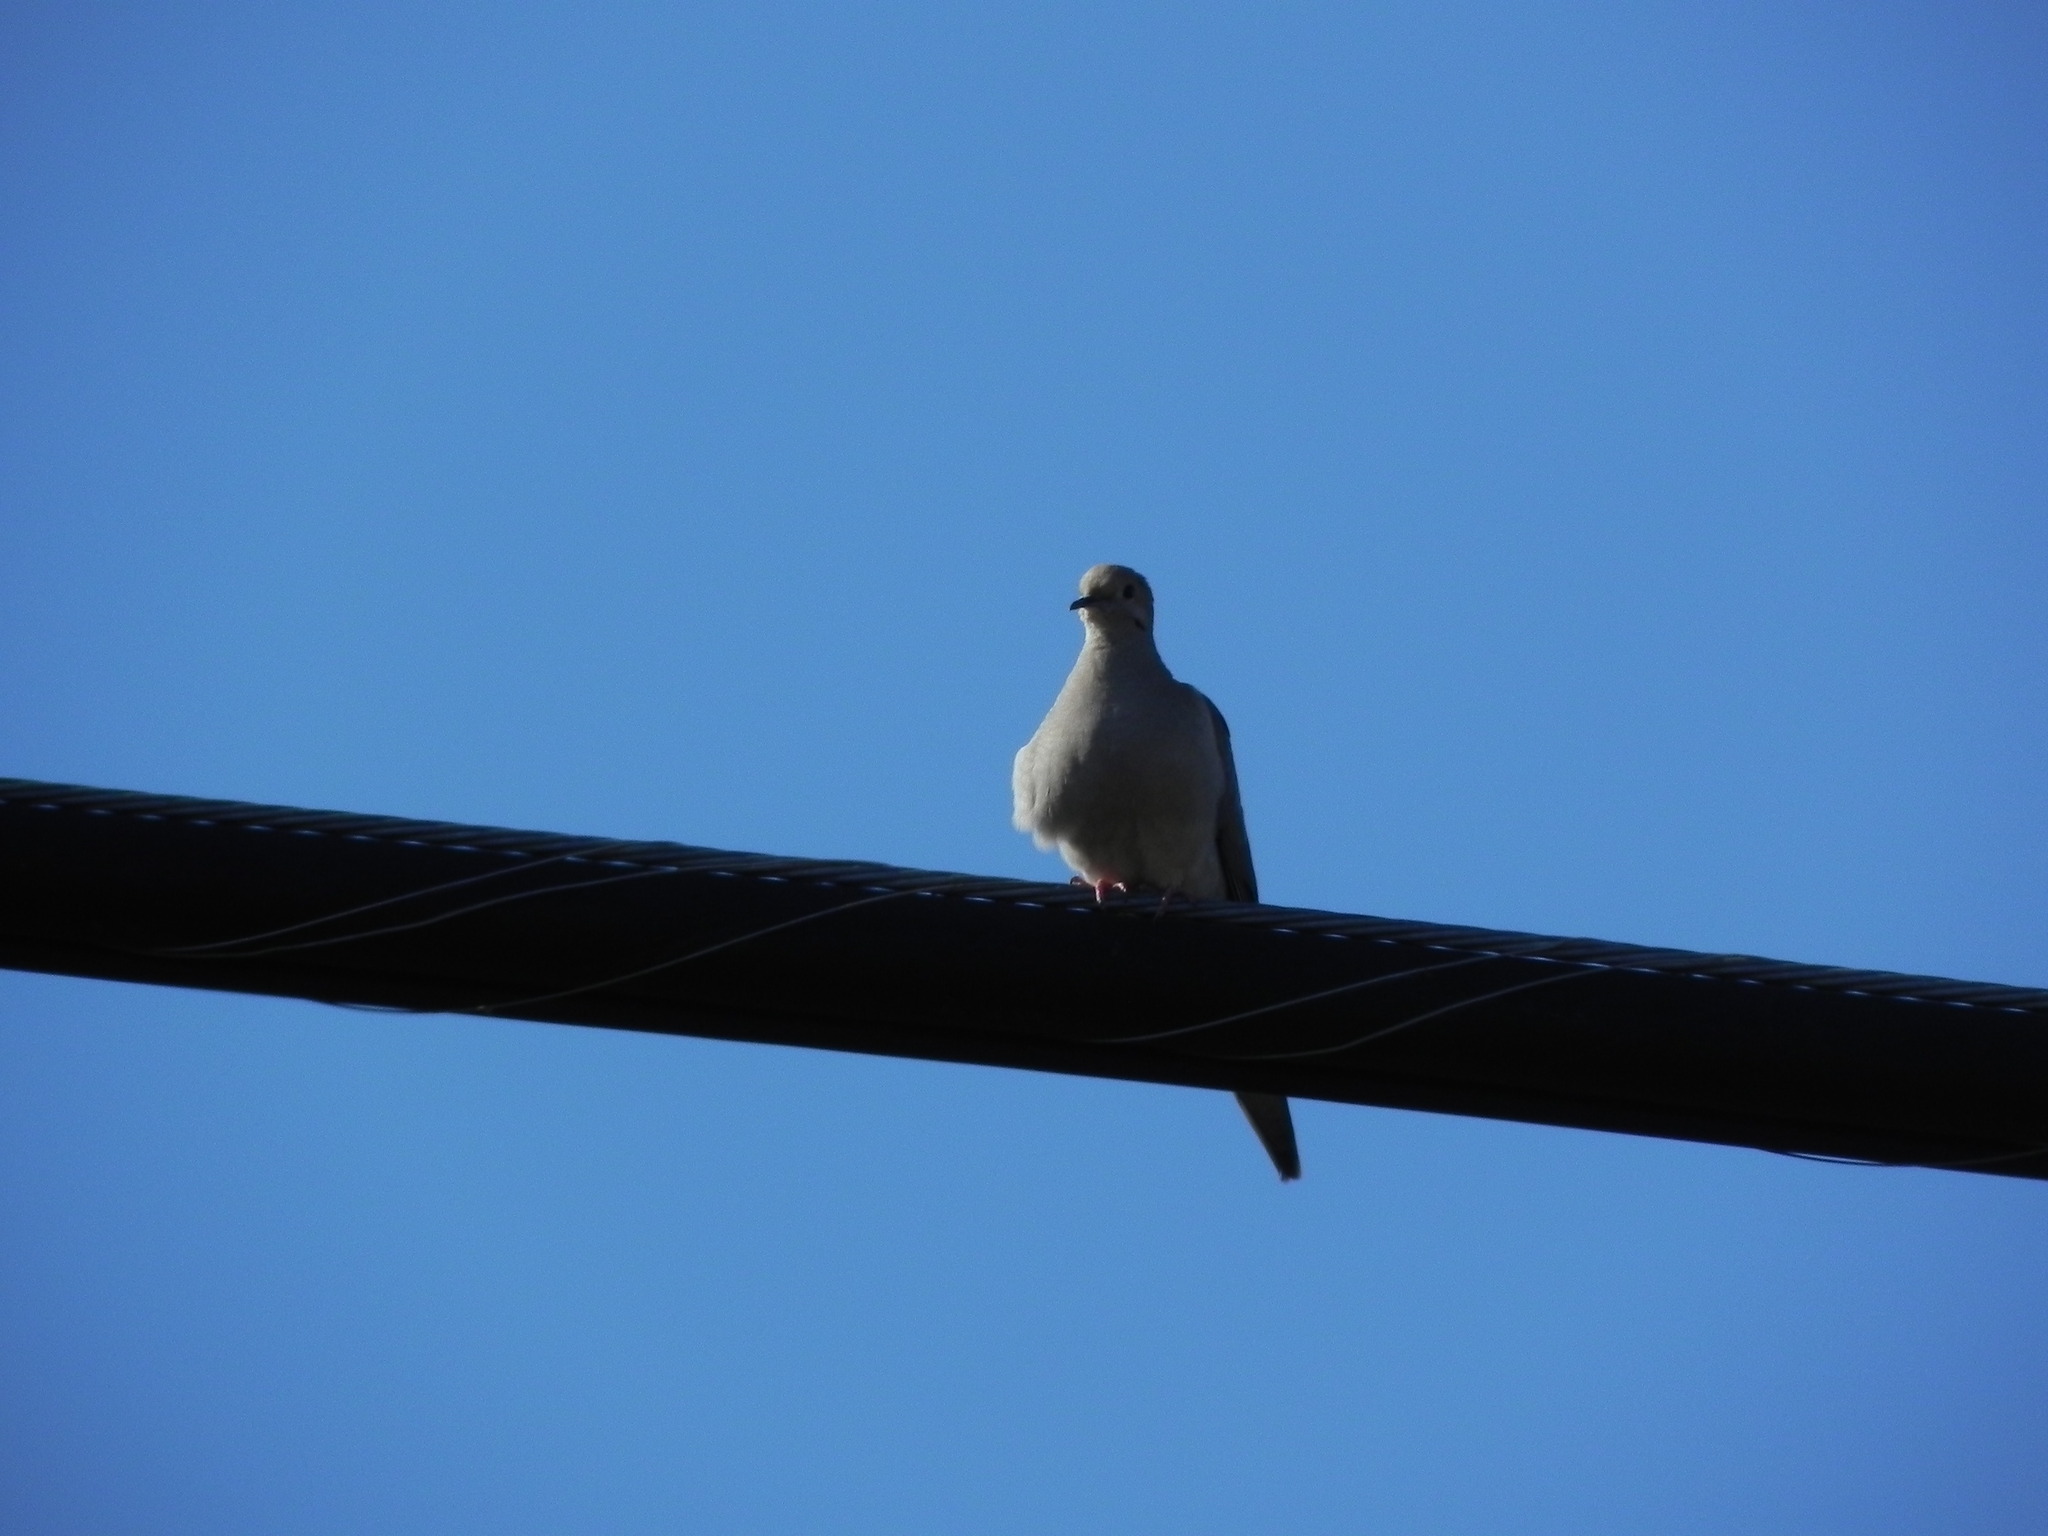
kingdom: Animalia
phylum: Chordata
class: Aves
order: Columbiformes
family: Columbidae
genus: Streptopelia
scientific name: Streptopelia decaocto
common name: Eurasian collared dove
